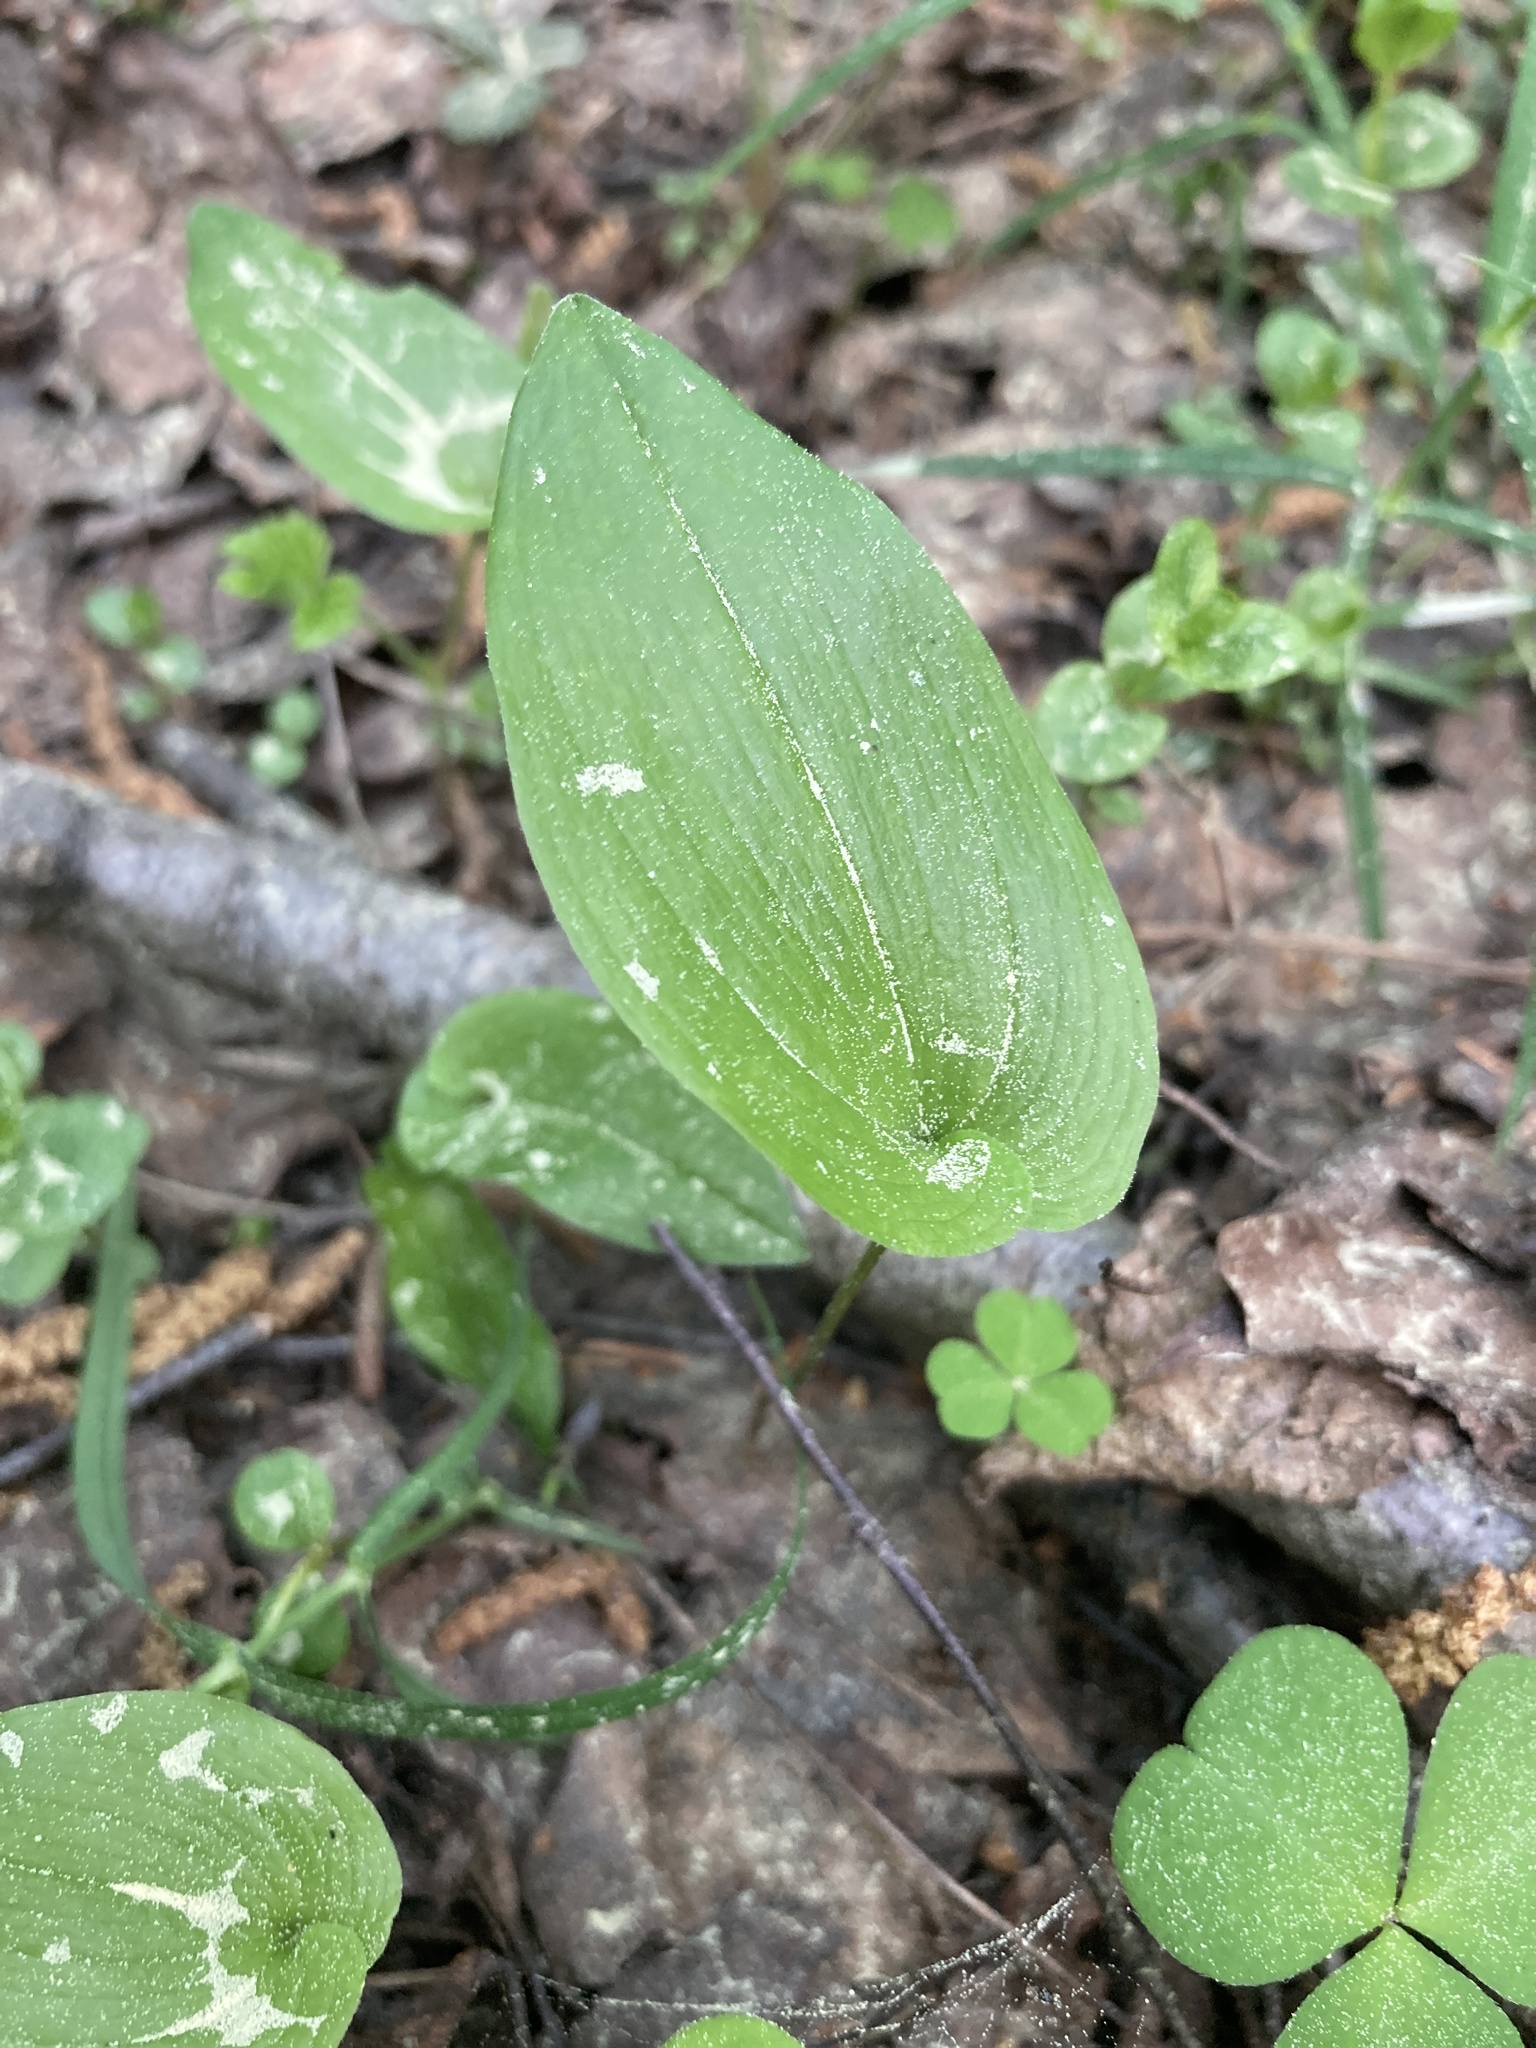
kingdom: Plantae
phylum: Tracheophyta
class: Liliopsida
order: Asparagales
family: Asparagaceae
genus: Maianthemum
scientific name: Maianthemum bifolium
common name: May lily
